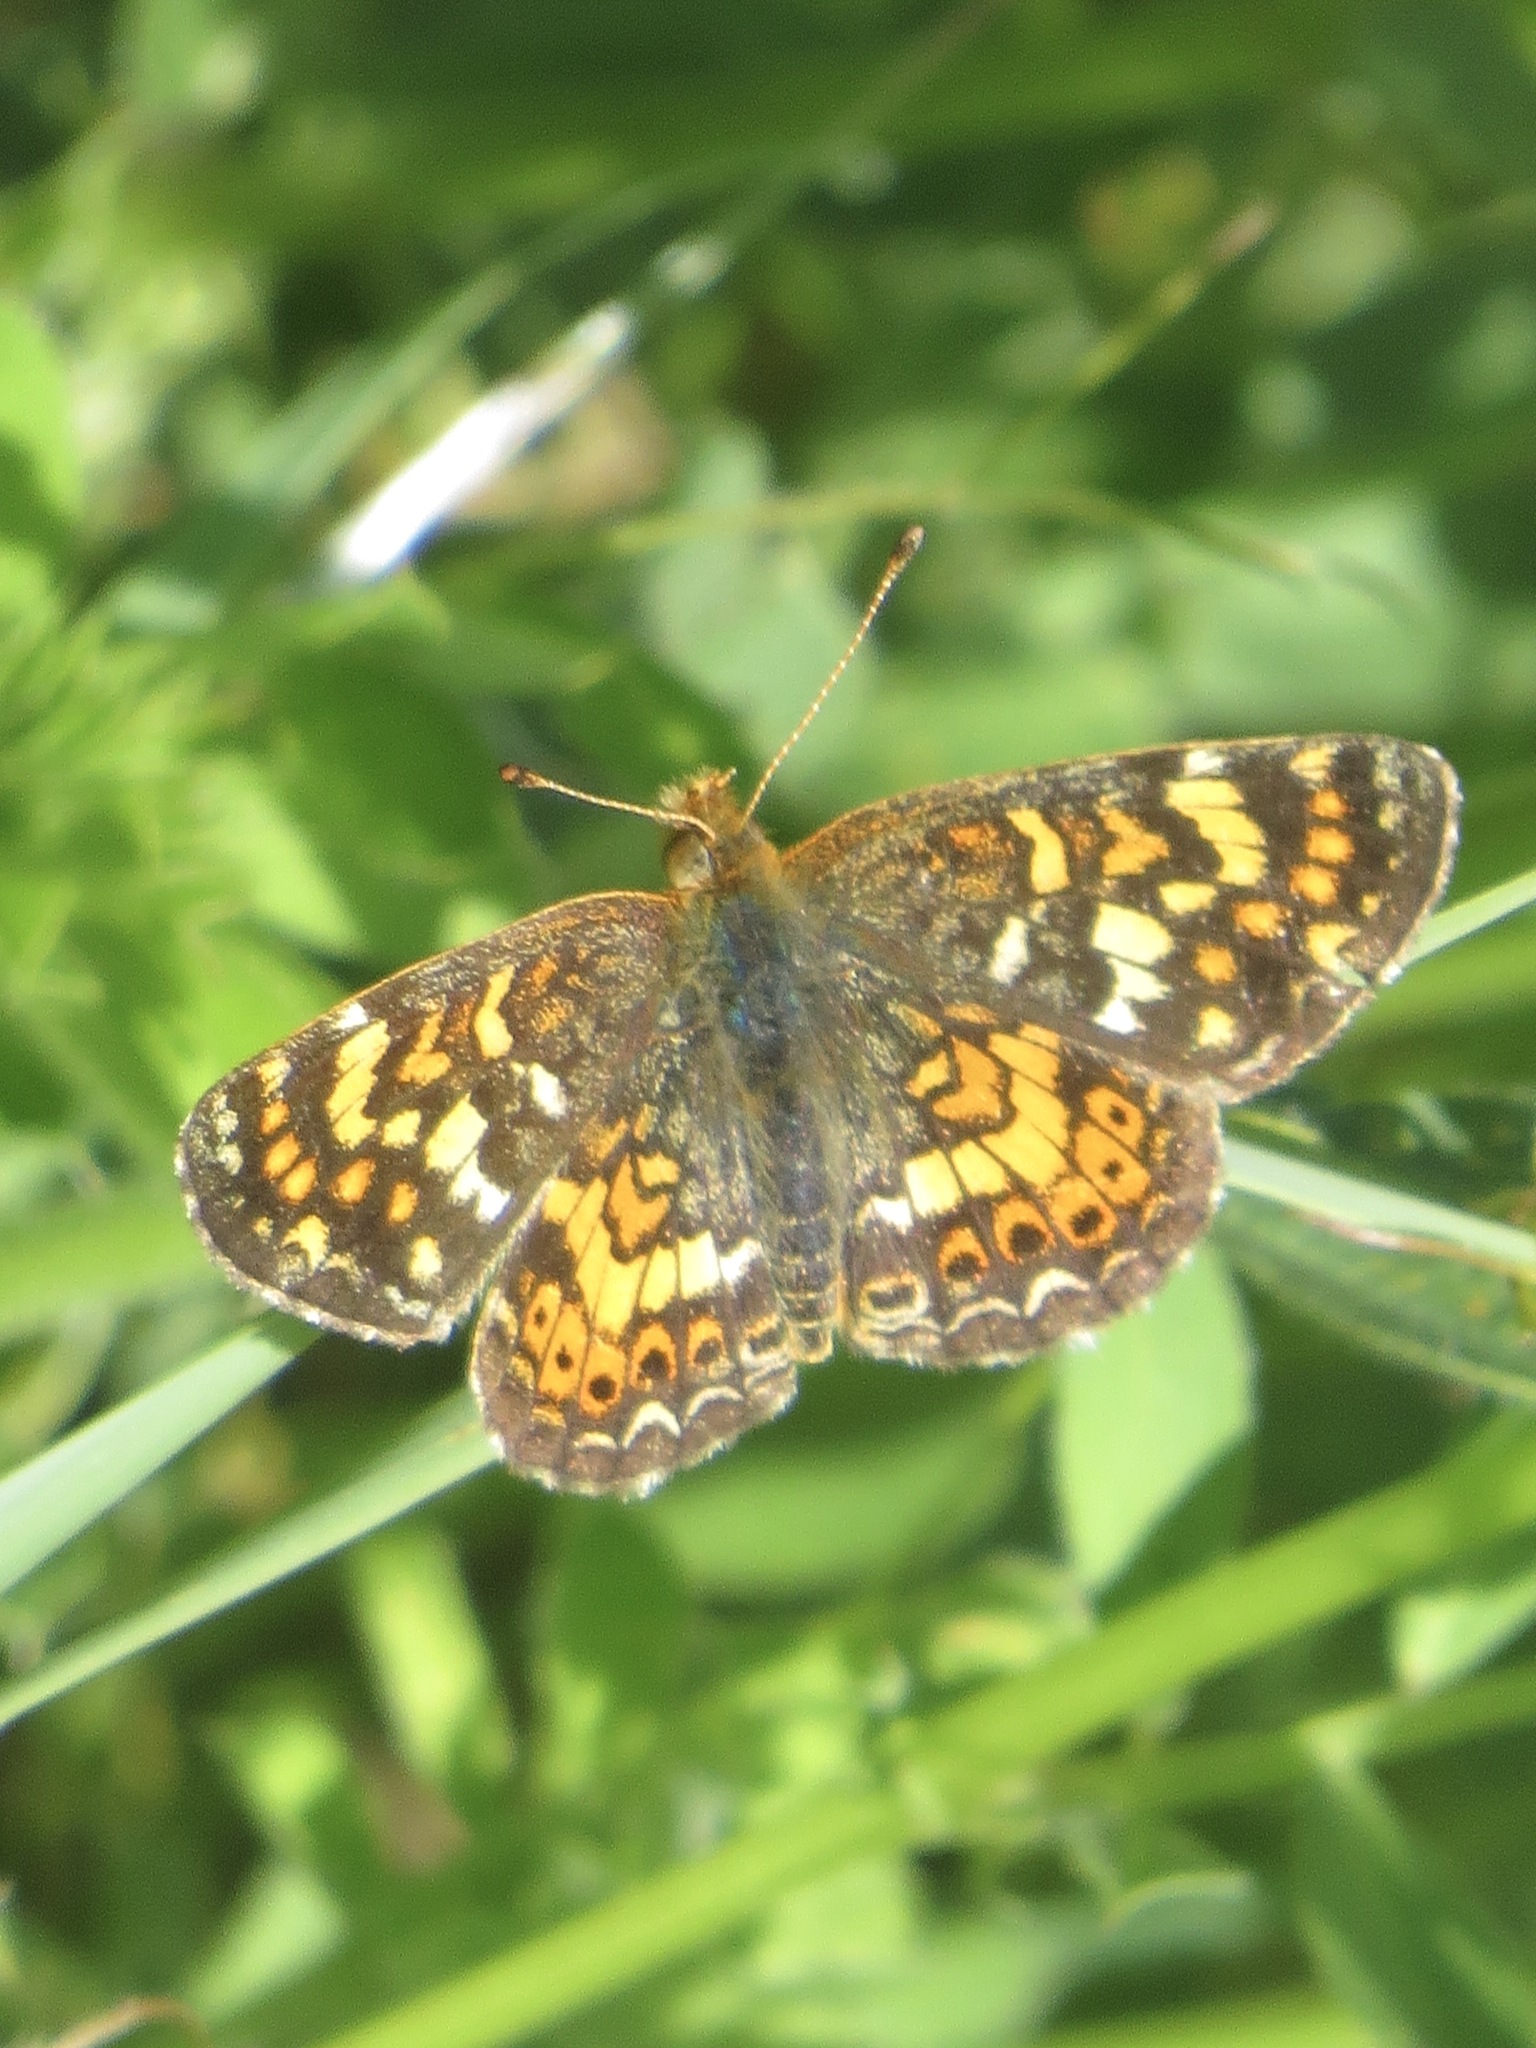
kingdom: Animalia
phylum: Arthropoda
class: Insecta
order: Lepidoptera
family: Nymphalidae
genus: Phyciodes
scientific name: Phyciodes tharos
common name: Pearl crescent
